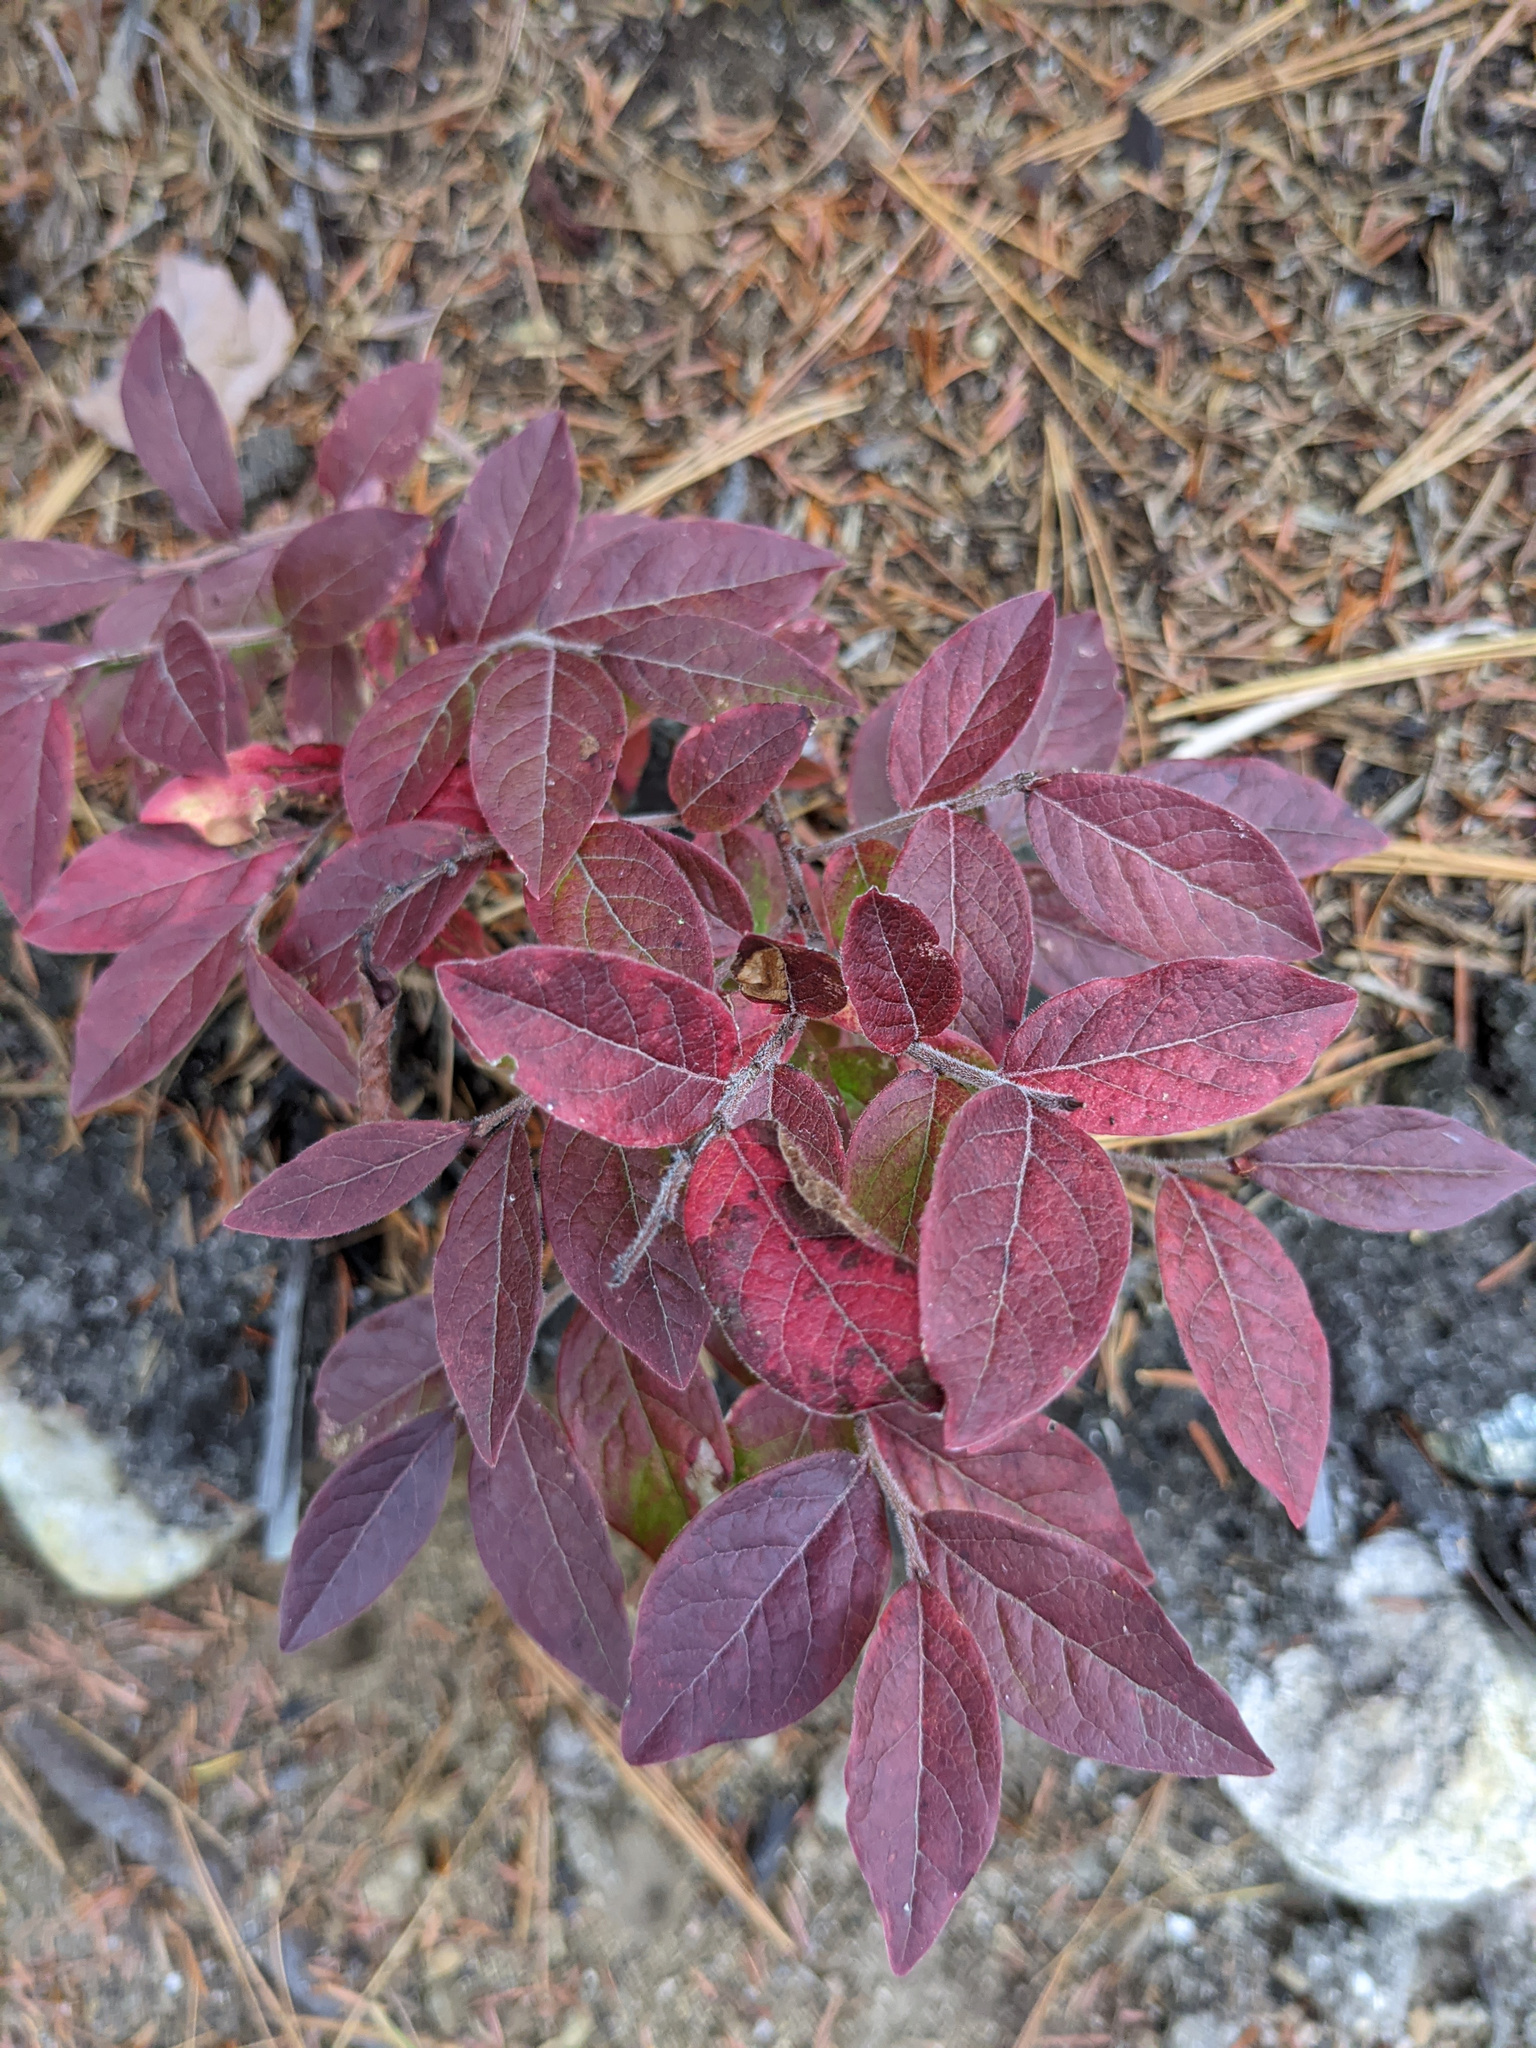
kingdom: Plantae
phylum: Tracheophyta
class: Magnoliopsida
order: Ericales
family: Ericaceae
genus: Vaccinium
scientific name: Vaccinium myrtilloides
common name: Canada blueberry
